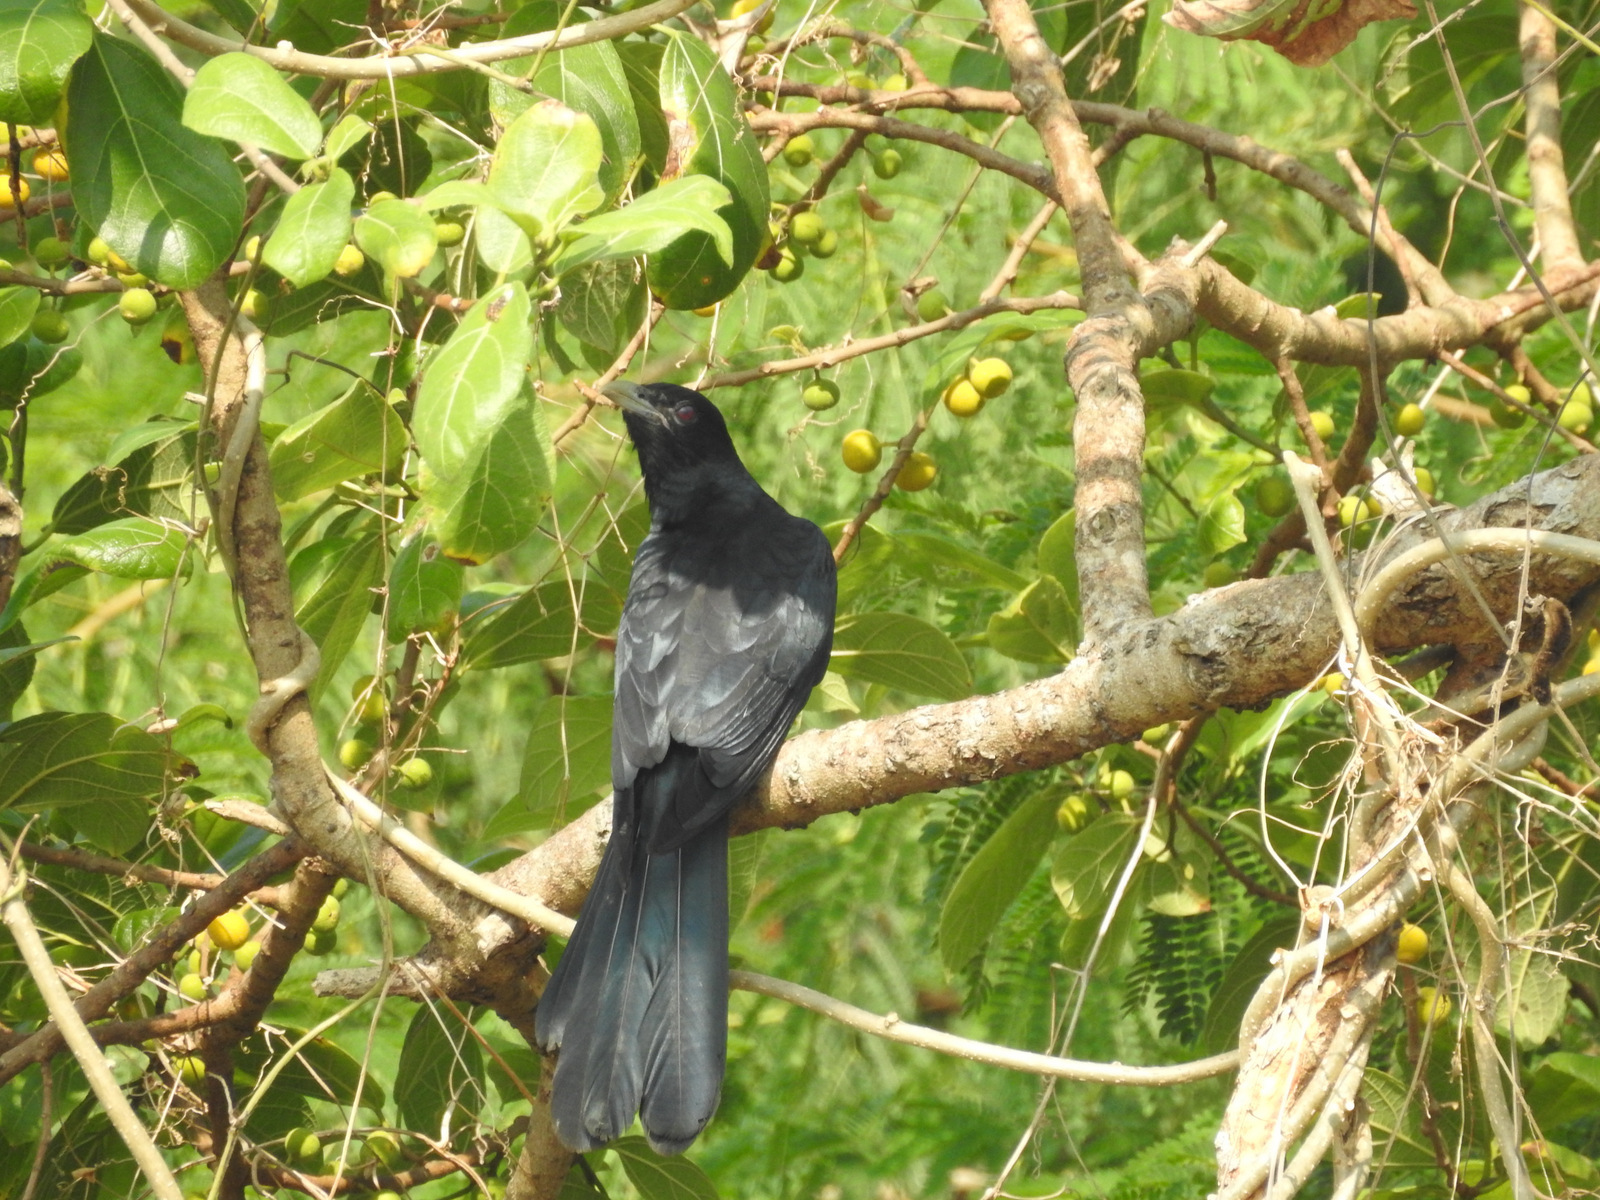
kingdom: Animalia
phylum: Chordata
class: Aves
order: Cuculiformes
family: Cuculidae
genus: Eudynamys
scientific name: Eudynamys scolopaceus
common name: Asian koel
